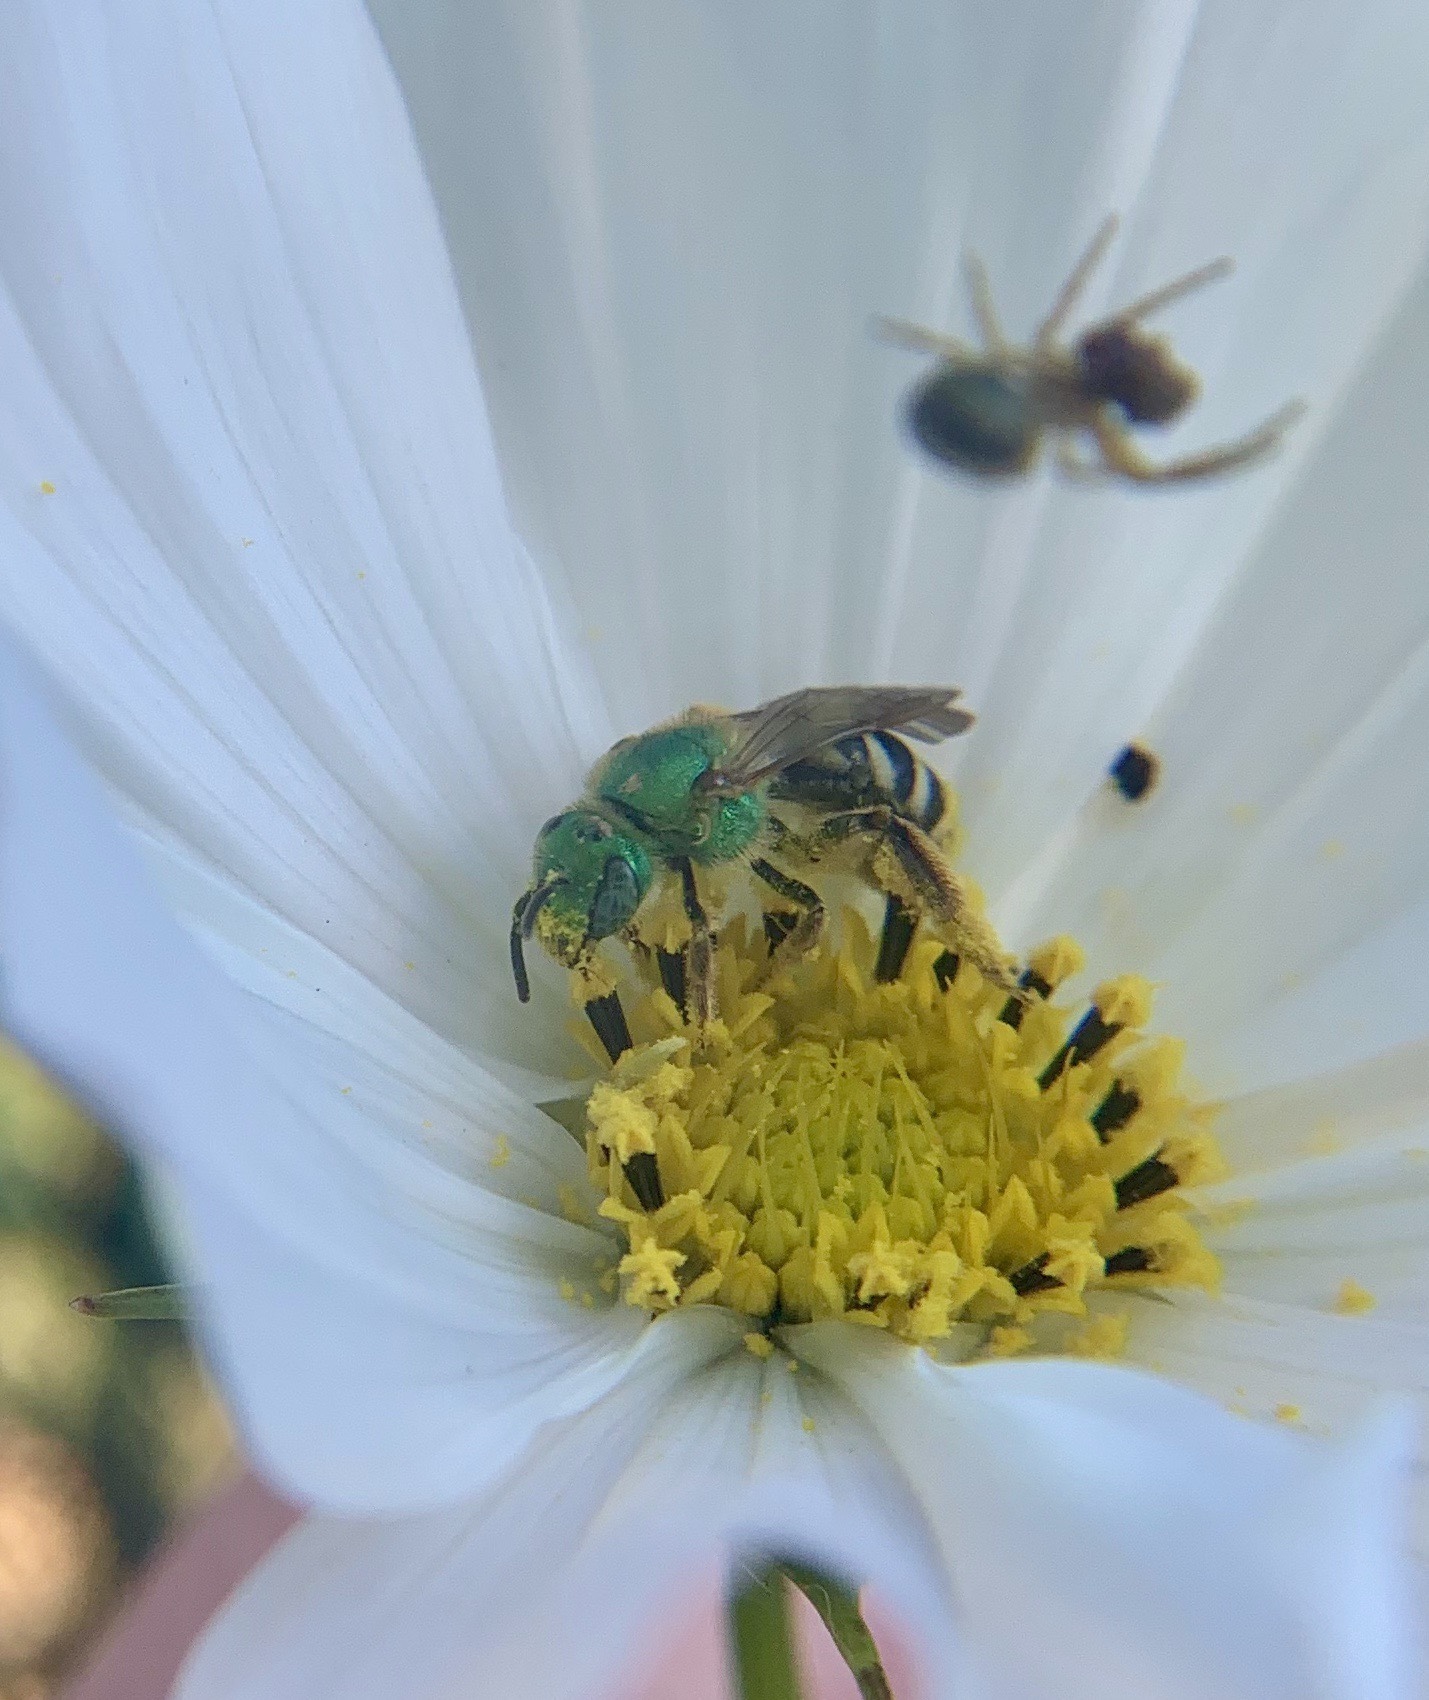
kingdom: Animalia
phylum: Arthropoda
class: Insecta
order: Hymenoptera
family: Halictidae
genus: Agapostemon
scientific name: Agapostemon virescens
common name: Bicolored striped sweat bee
